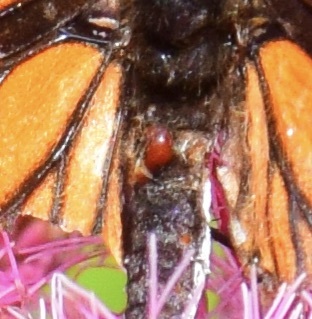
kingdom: Animalia
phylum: Arthropoda
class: Insecta
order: Lepidoptera
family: Nymphalidae
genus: Limenitis
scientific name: Limenitis archippus
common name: Viceroy
